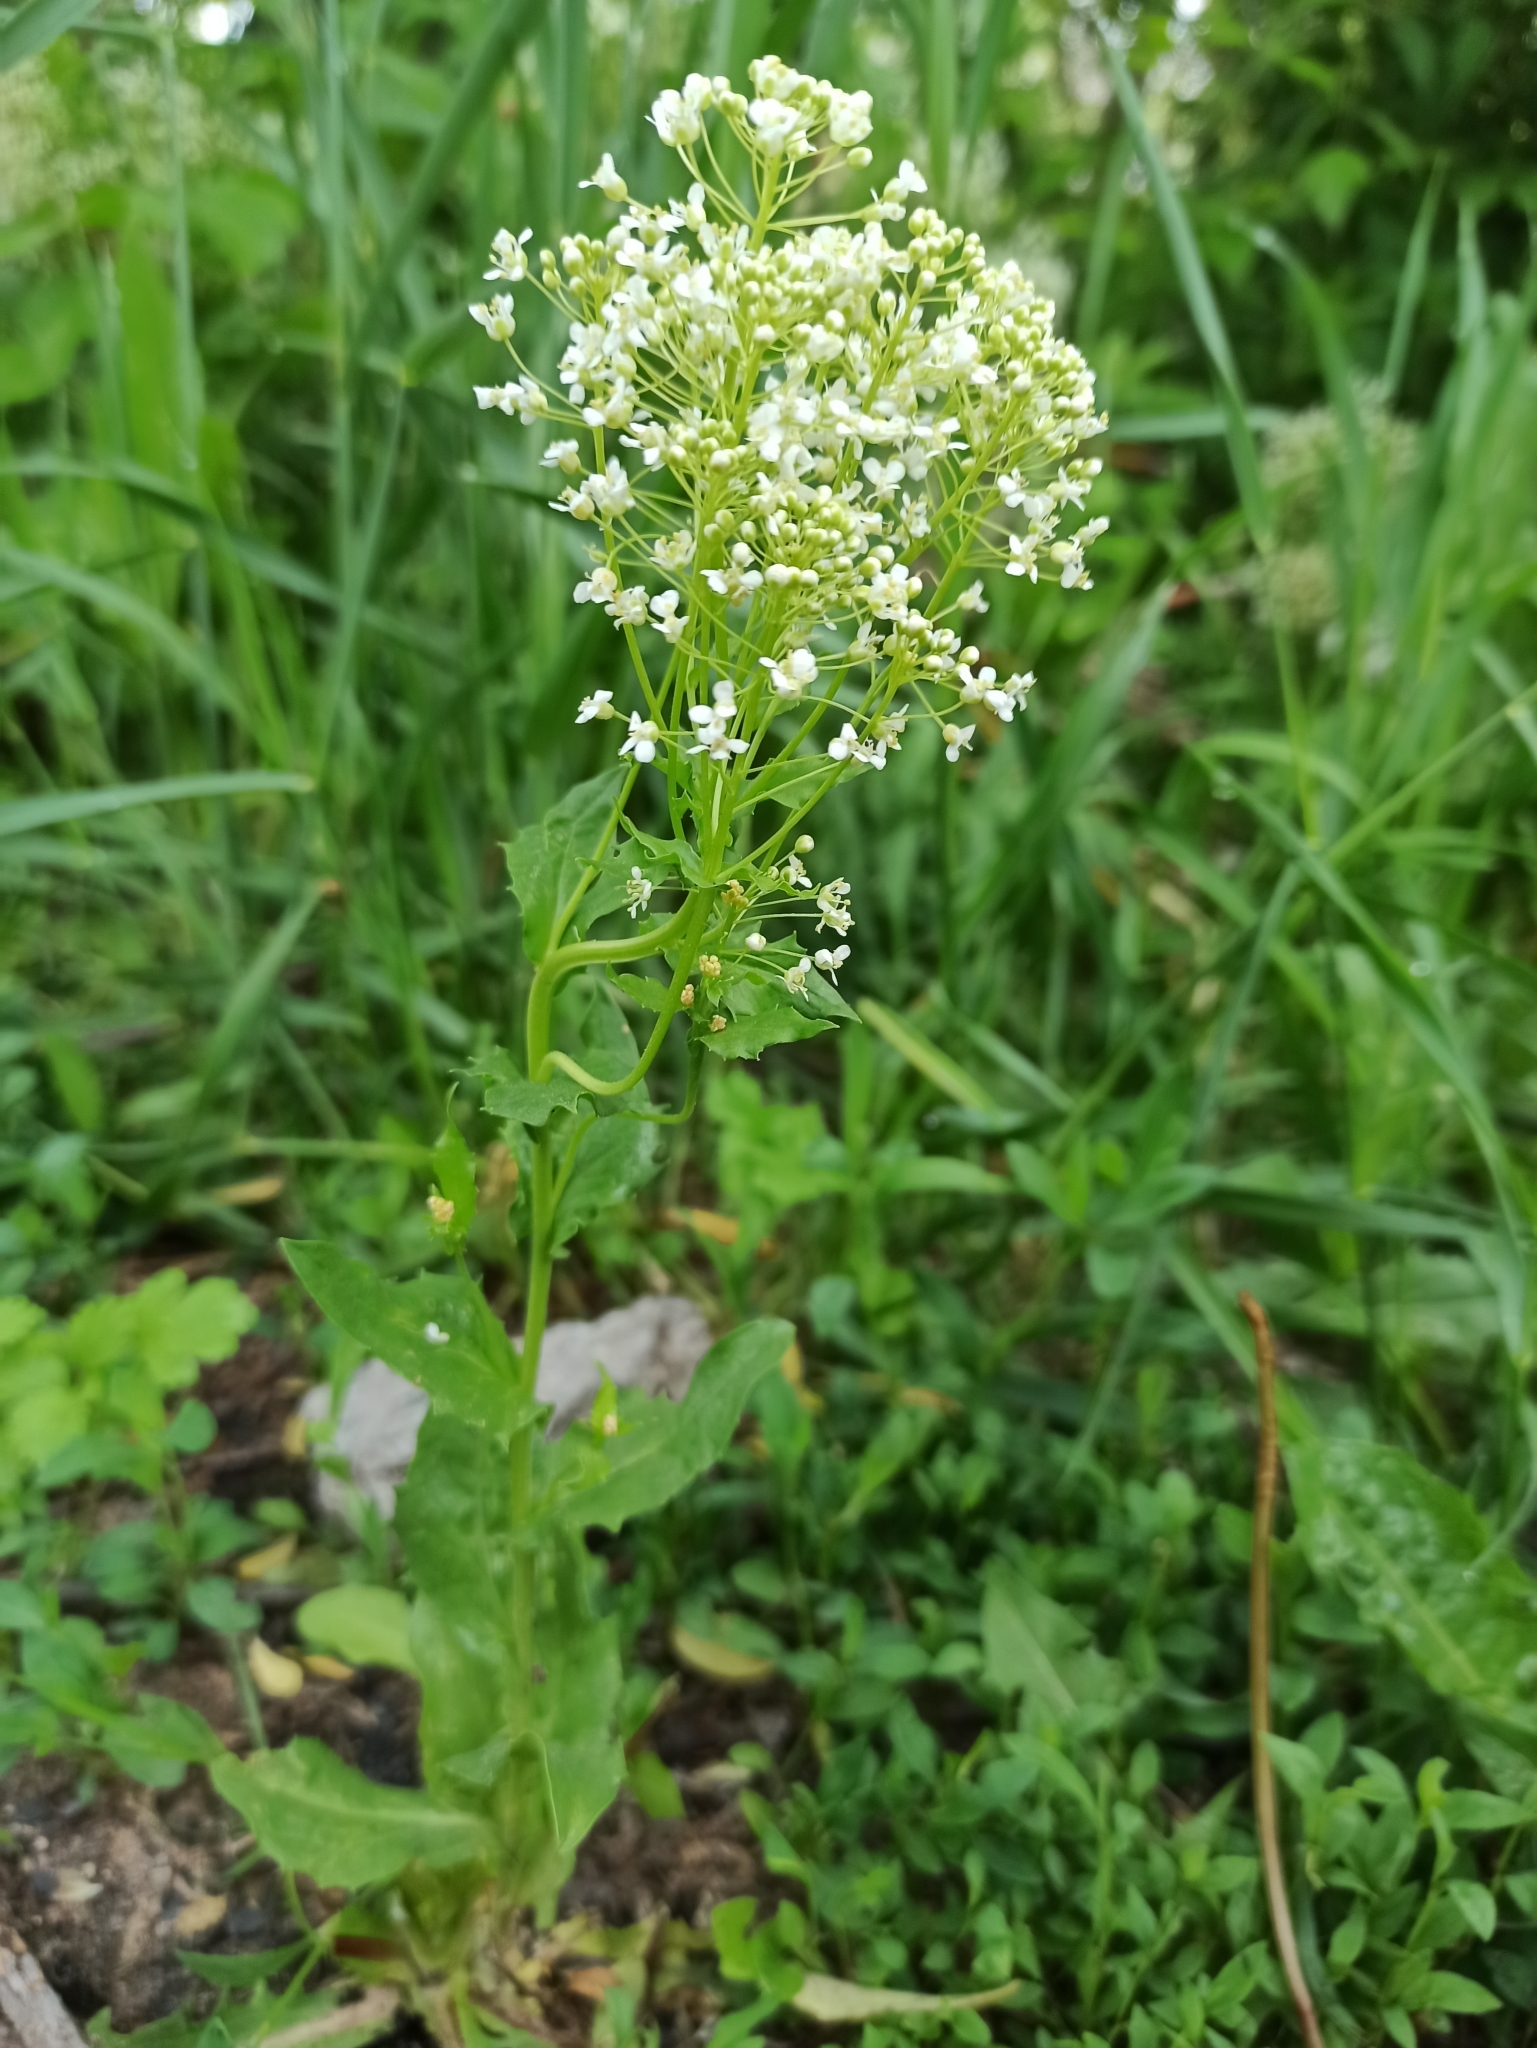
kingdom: Plantae
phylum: Tracheophyta
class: Magnoliopsida
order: Brassicales
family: Brassicaceae
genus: Lepidium
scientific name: Lepidium draba
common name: Hoary cress
